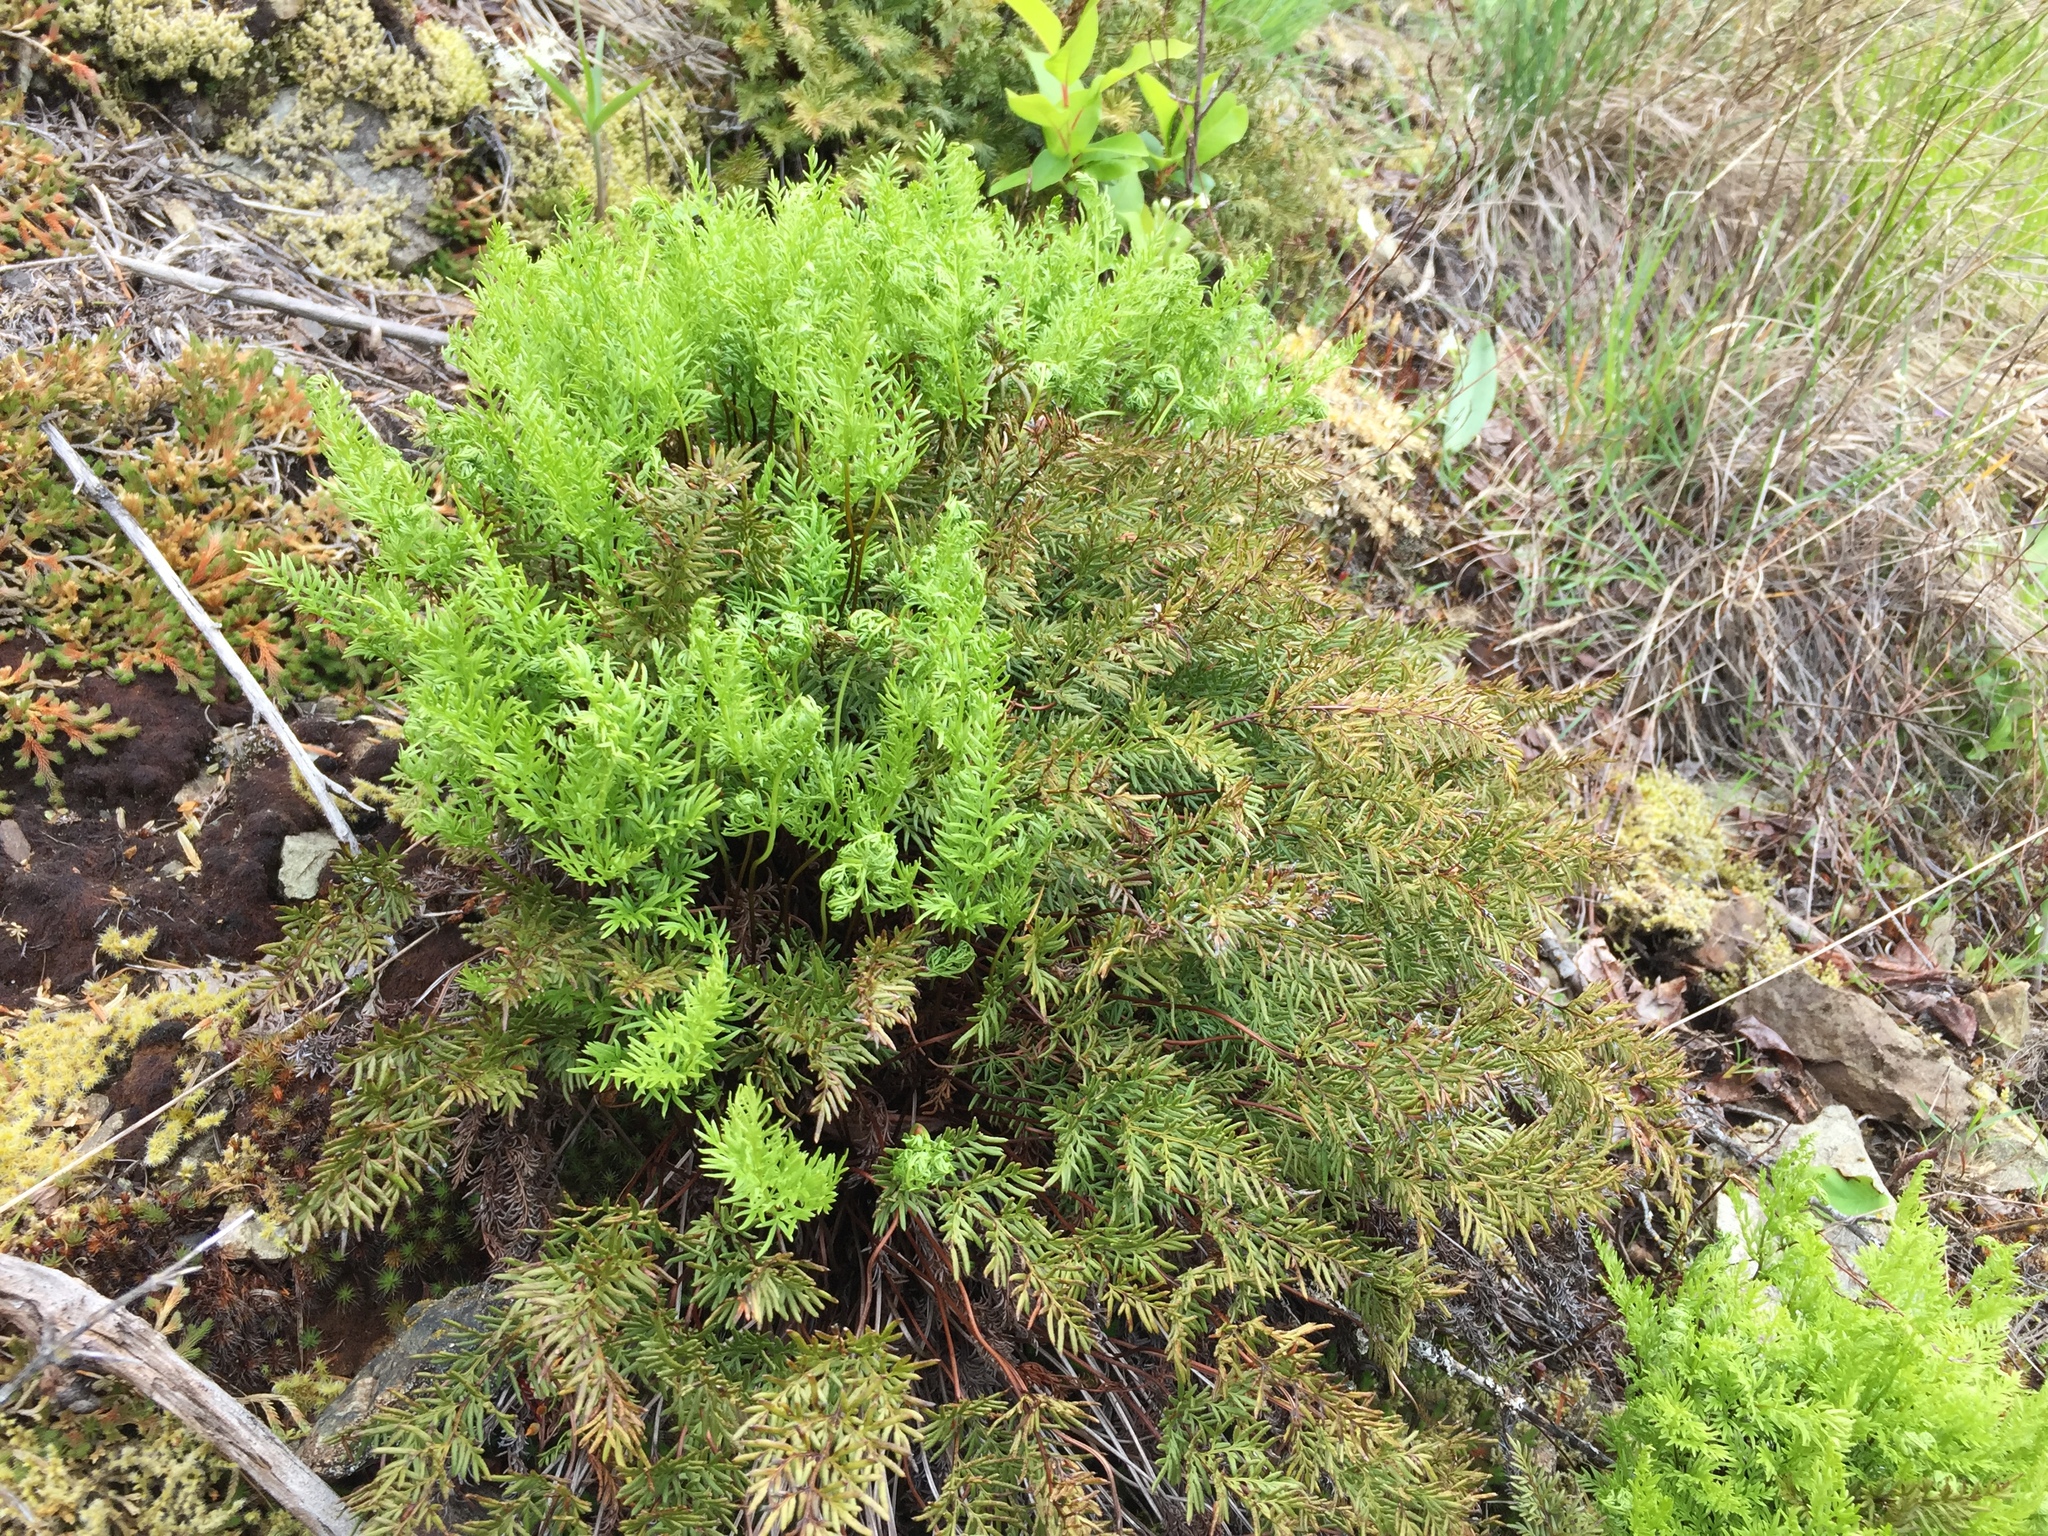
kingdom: Plantae
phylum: Tracheophyta
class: Polypodiopsida
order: Polypodiales
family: Pteridaceae
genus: Aspidotis
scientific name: Aspidotis densa
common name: Indian's dream
